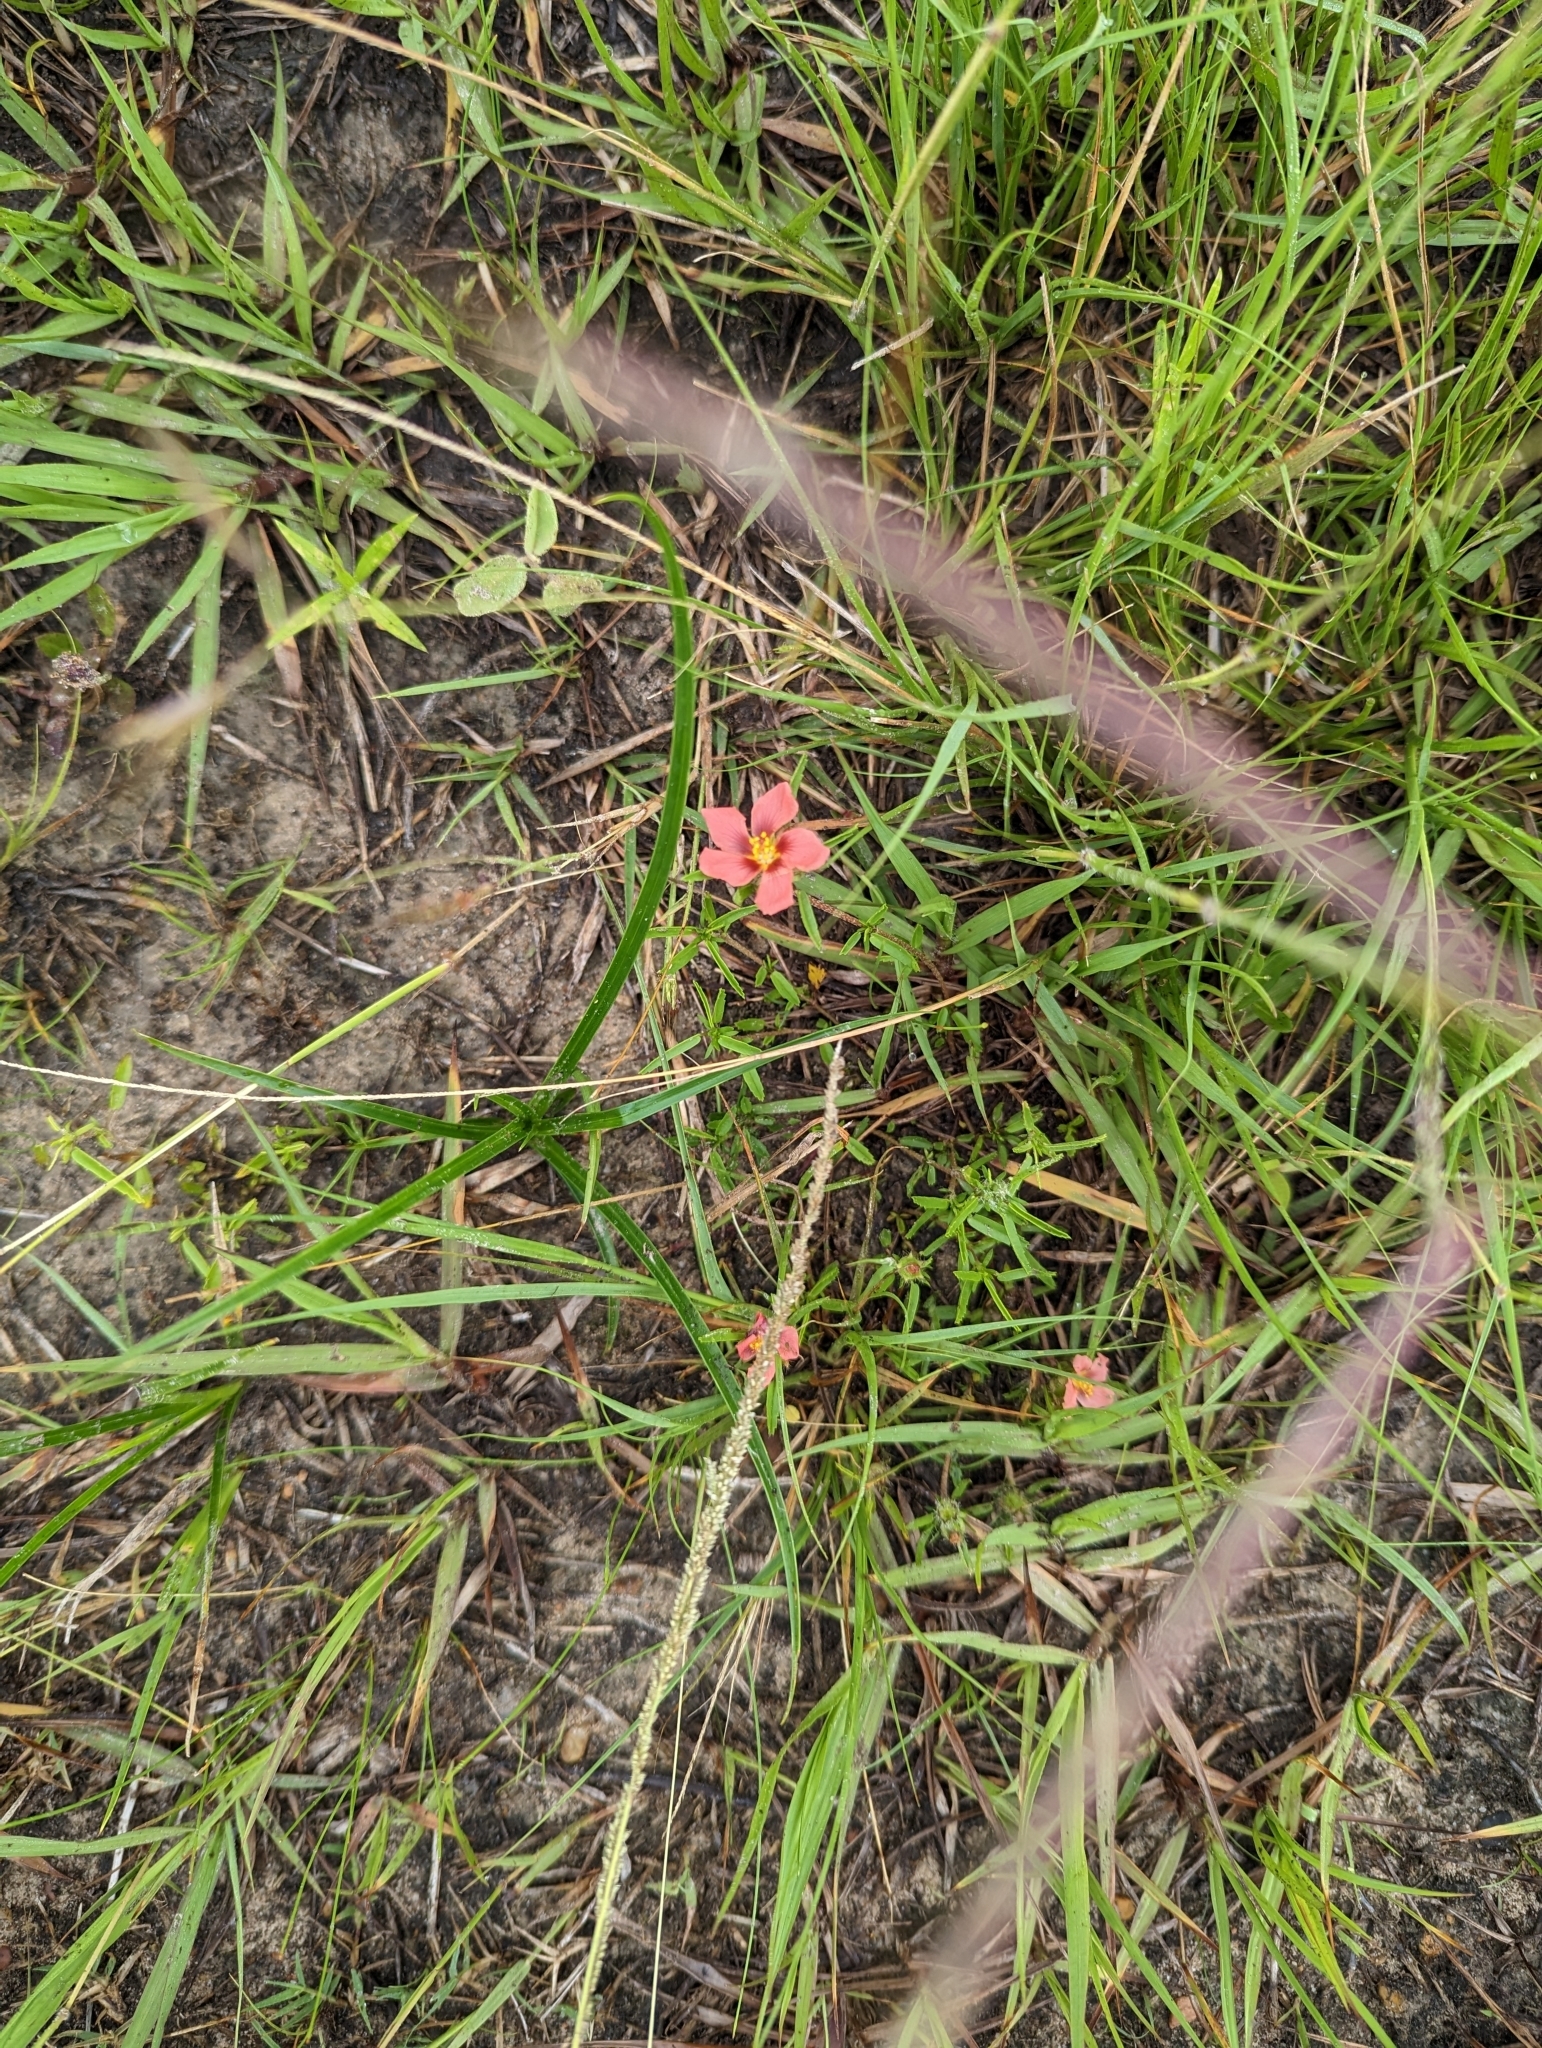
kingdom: Plantae
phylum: Tracheophyta
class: Magnoliopsida
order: Malvales
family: Malvaceae
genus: Sida
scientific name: Sida ciliaris
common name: Bracted fanpetals
